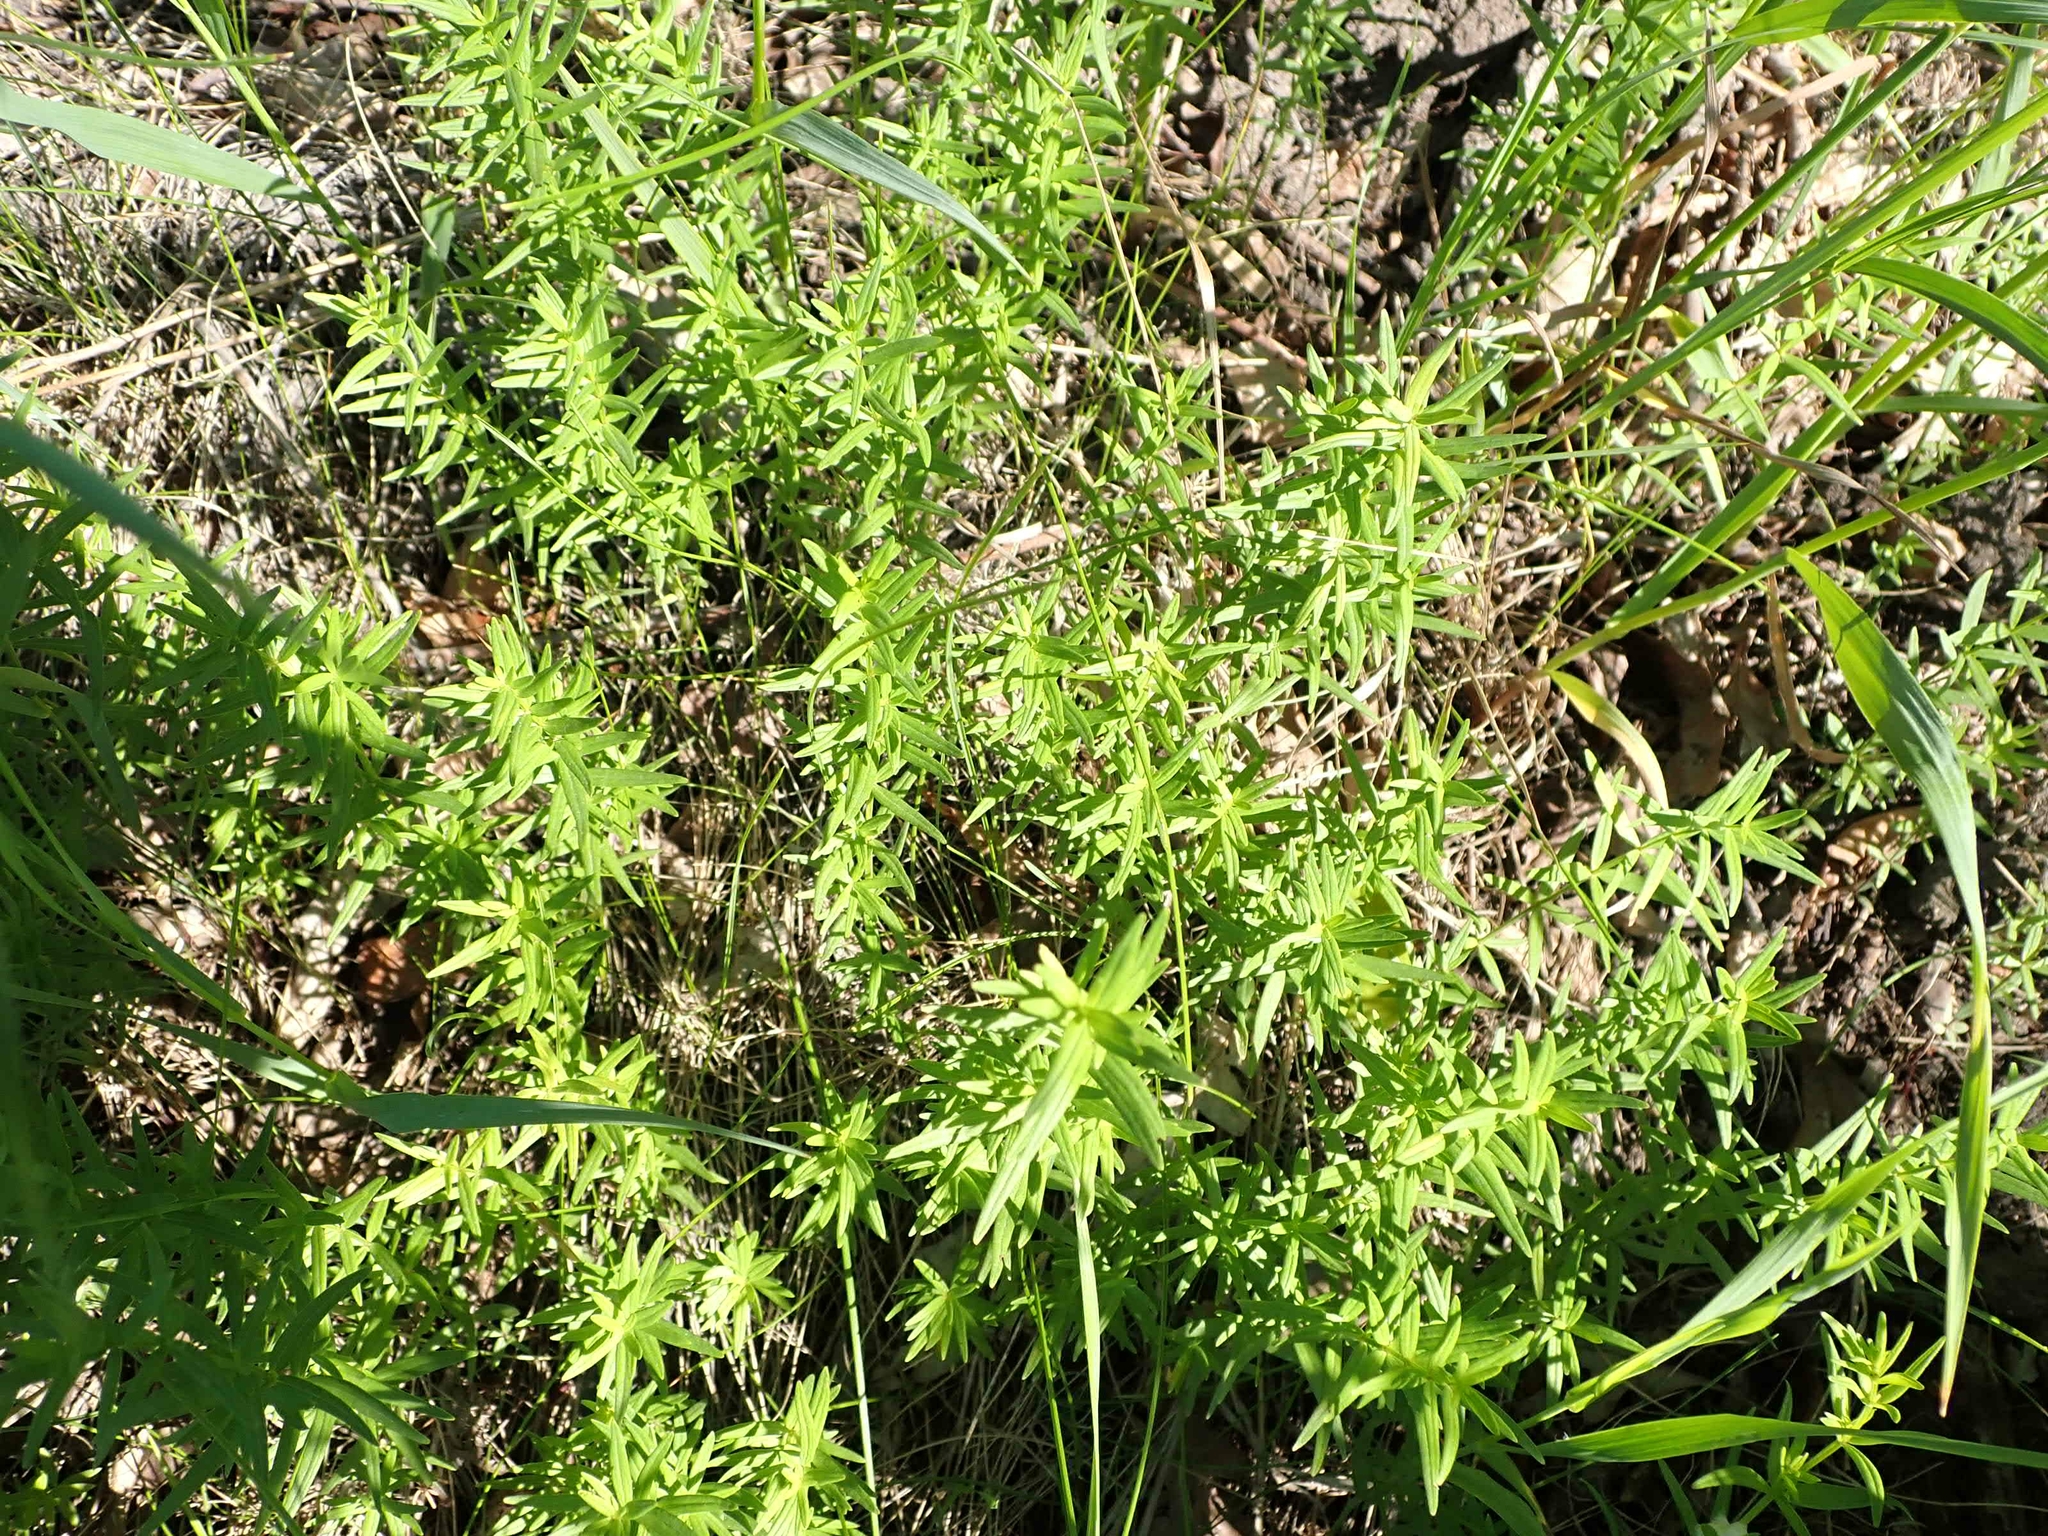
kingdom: Plantae
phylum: Tracheophyta
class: Magnoliopsida
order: Gentianales
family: Rubiaceae
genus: Galium
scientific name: Galium boreale
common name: Northern bedstraw
